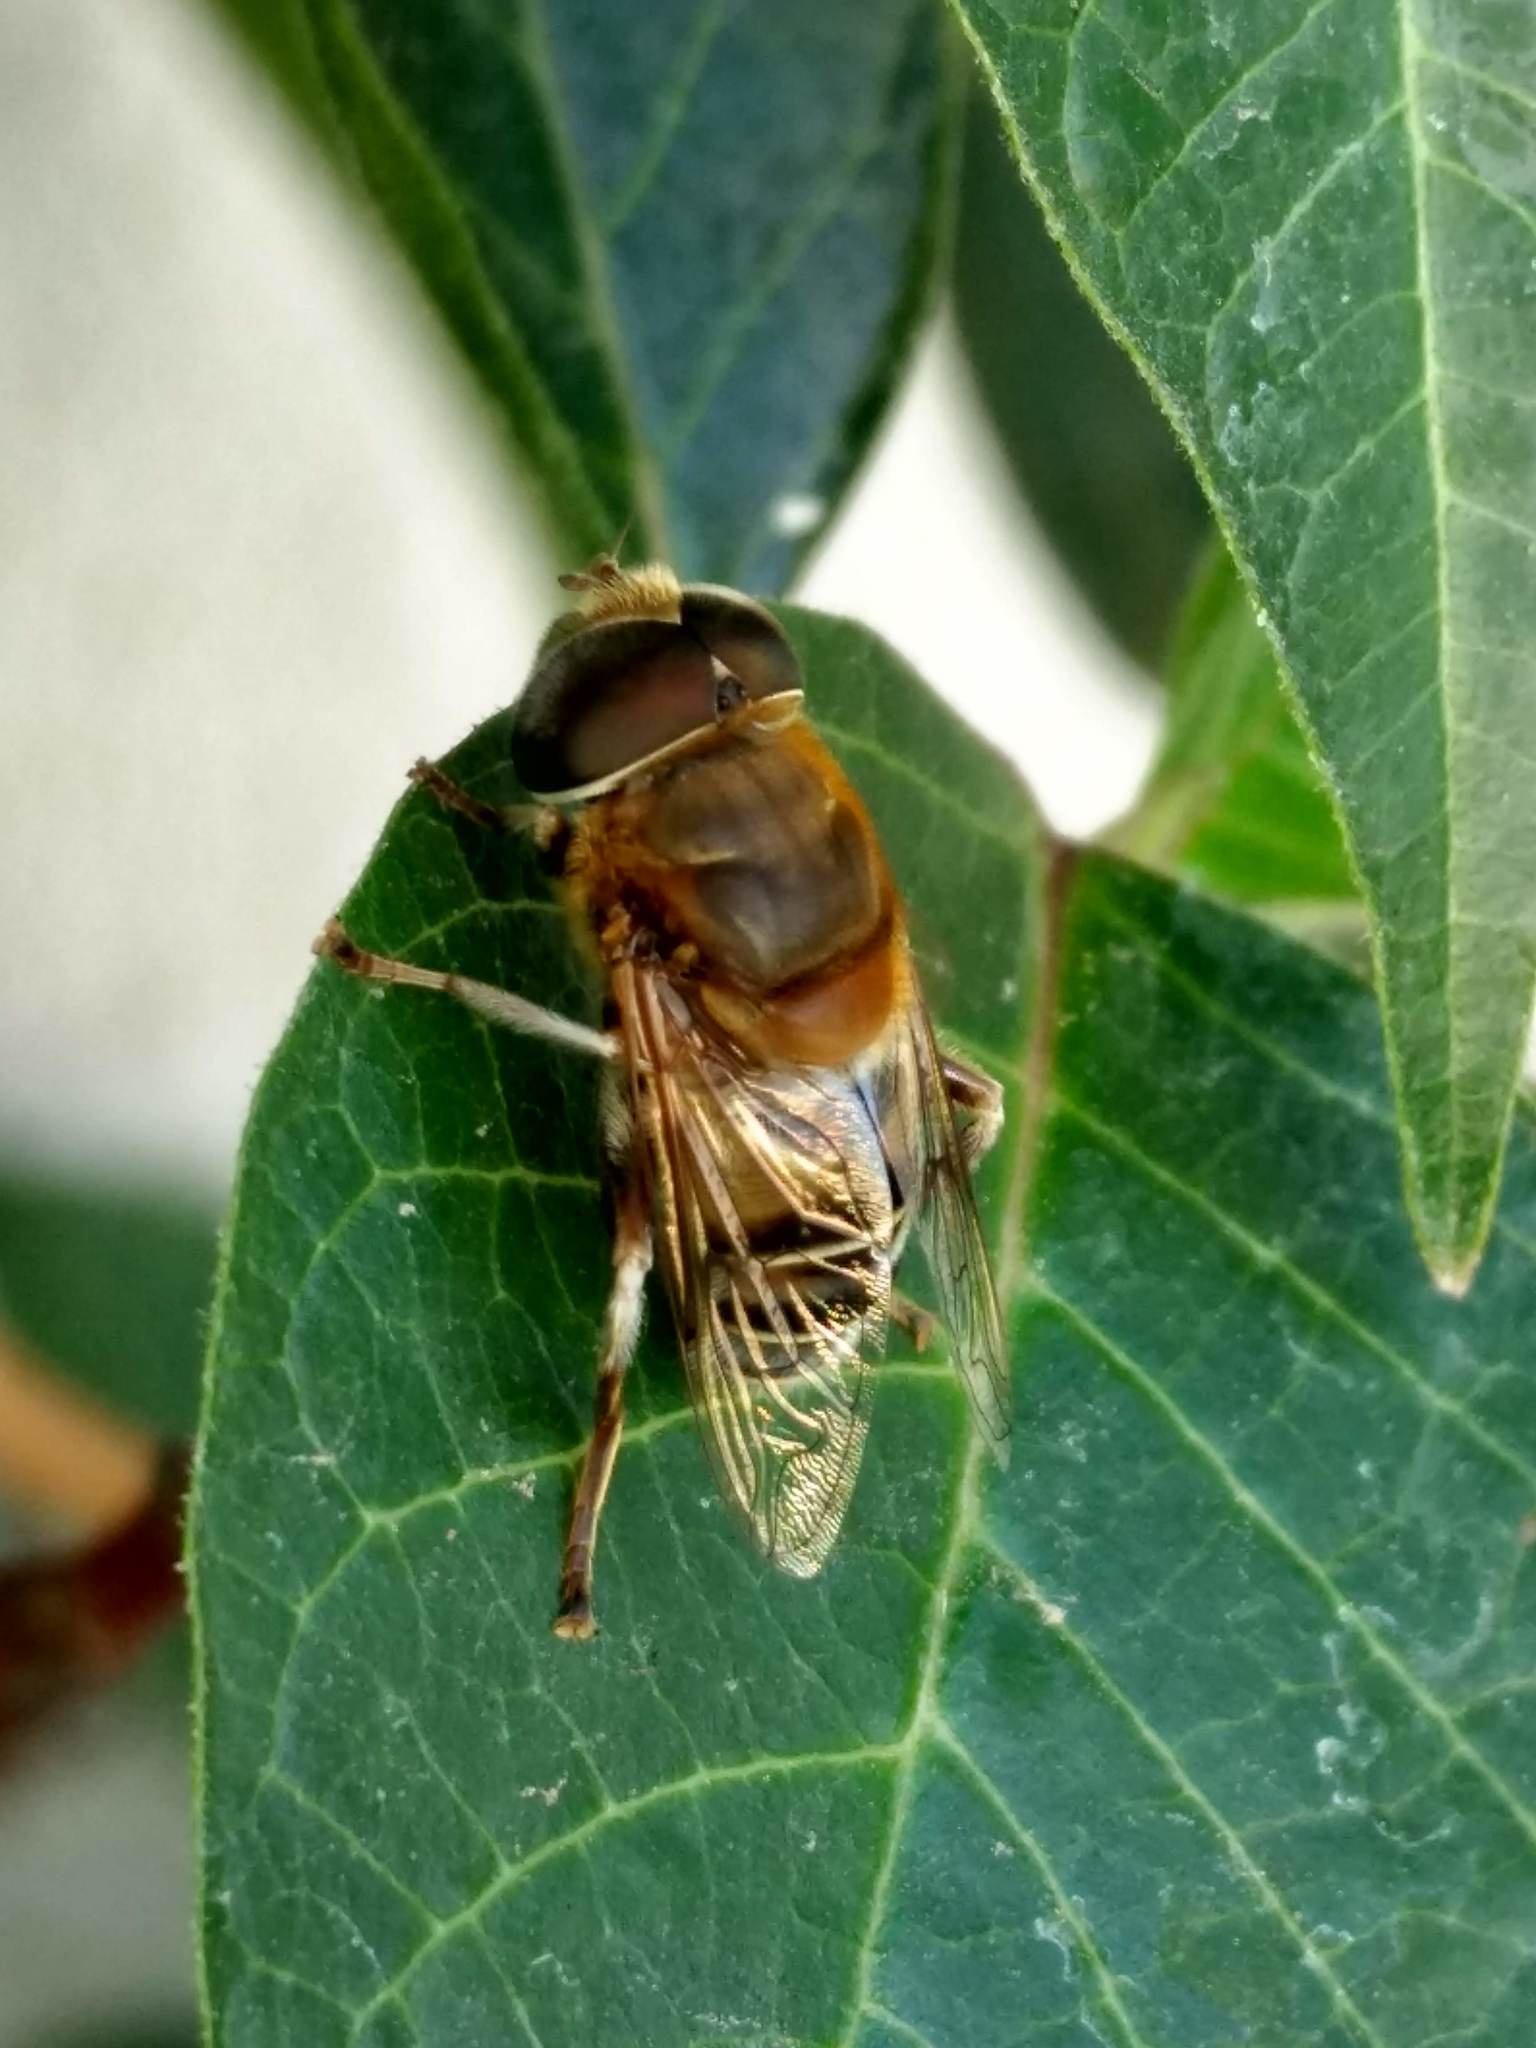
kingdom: Animalia
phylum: Arthropoda
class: Insecta
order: Diptera
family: Syrphidae
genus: Palpada
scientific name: Palpada mexicana
